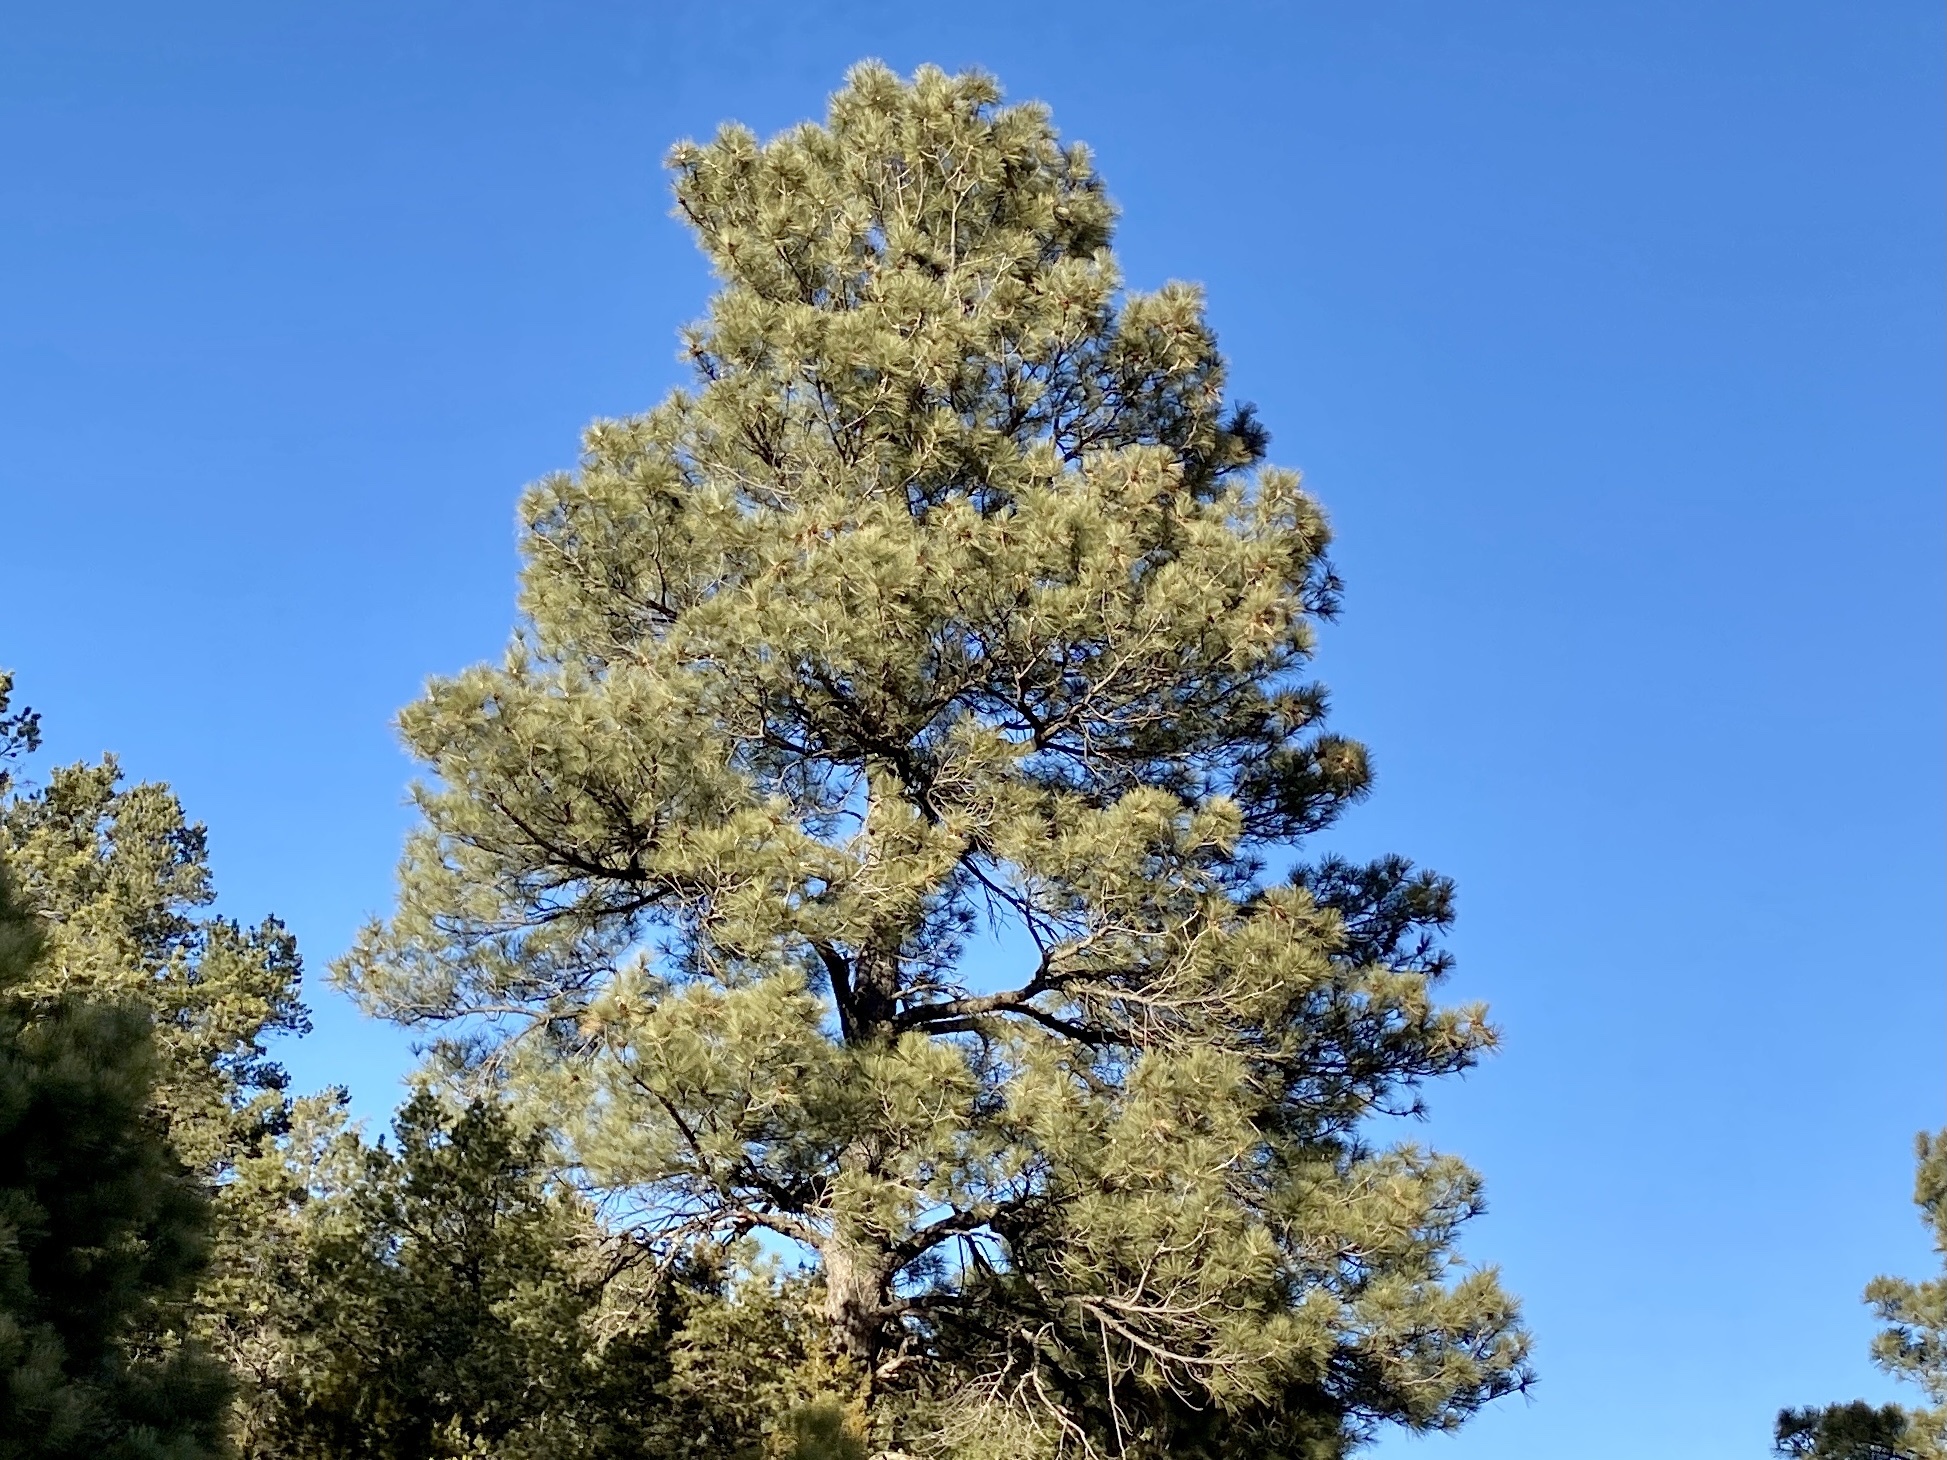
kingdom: Plantae
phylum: Tracheophyta
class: Pinopsida
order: Pinales
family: Pinaceae
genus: Pinus
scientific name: Pinus ponderosa
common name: Western yellow-pine
